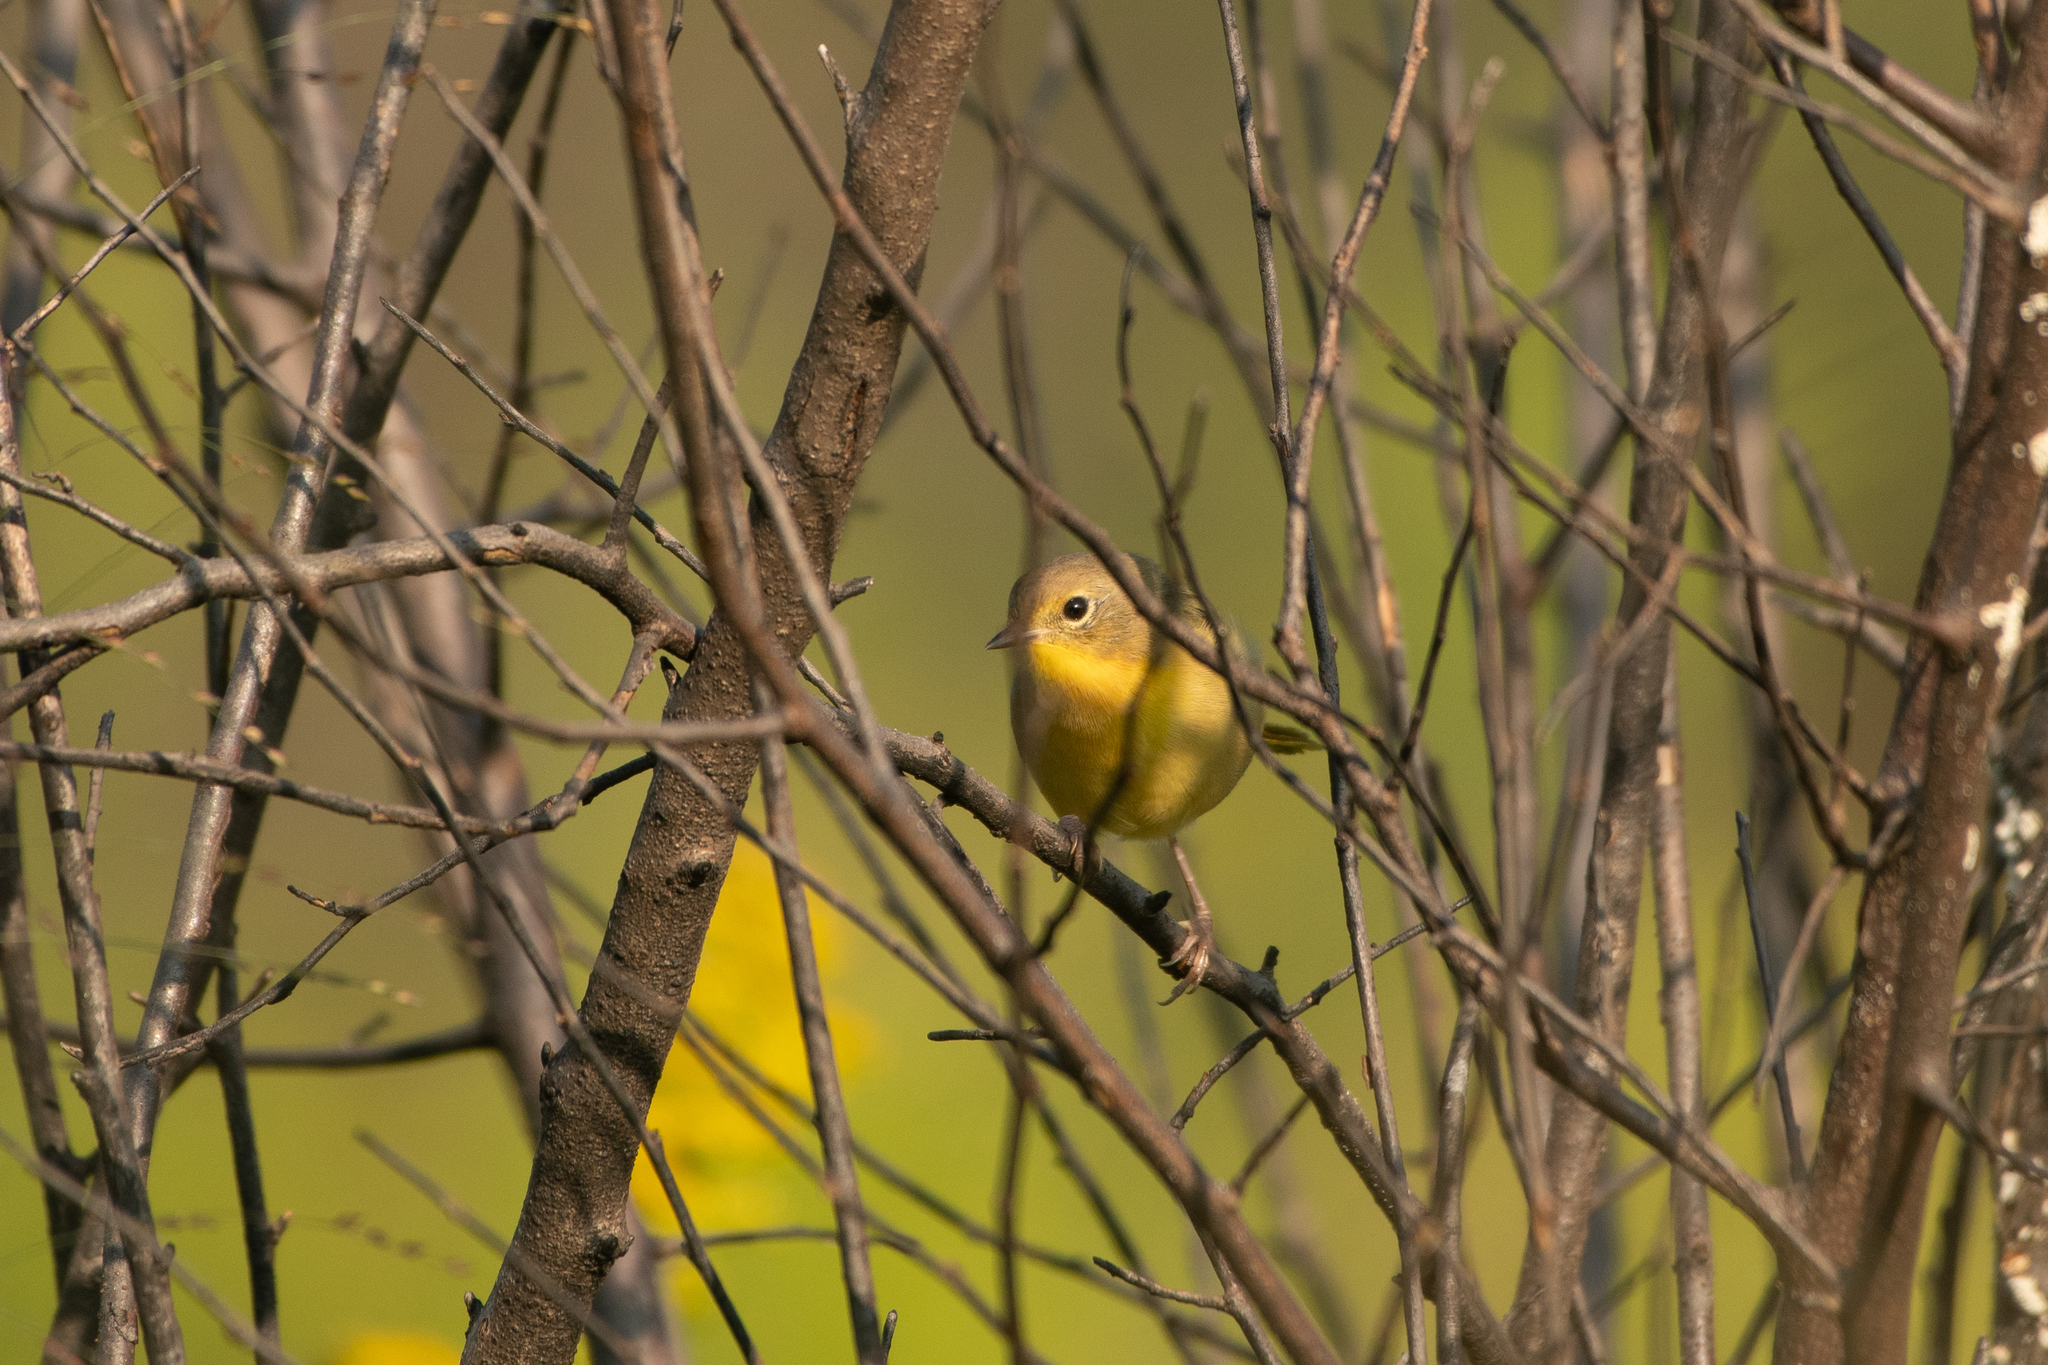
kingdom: Animalia
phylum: Chordata
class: Aves
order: Passeriformes
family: Parulidae
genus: Geothlypis
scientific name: Geothlypis trichas
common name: Common yellowthroat
